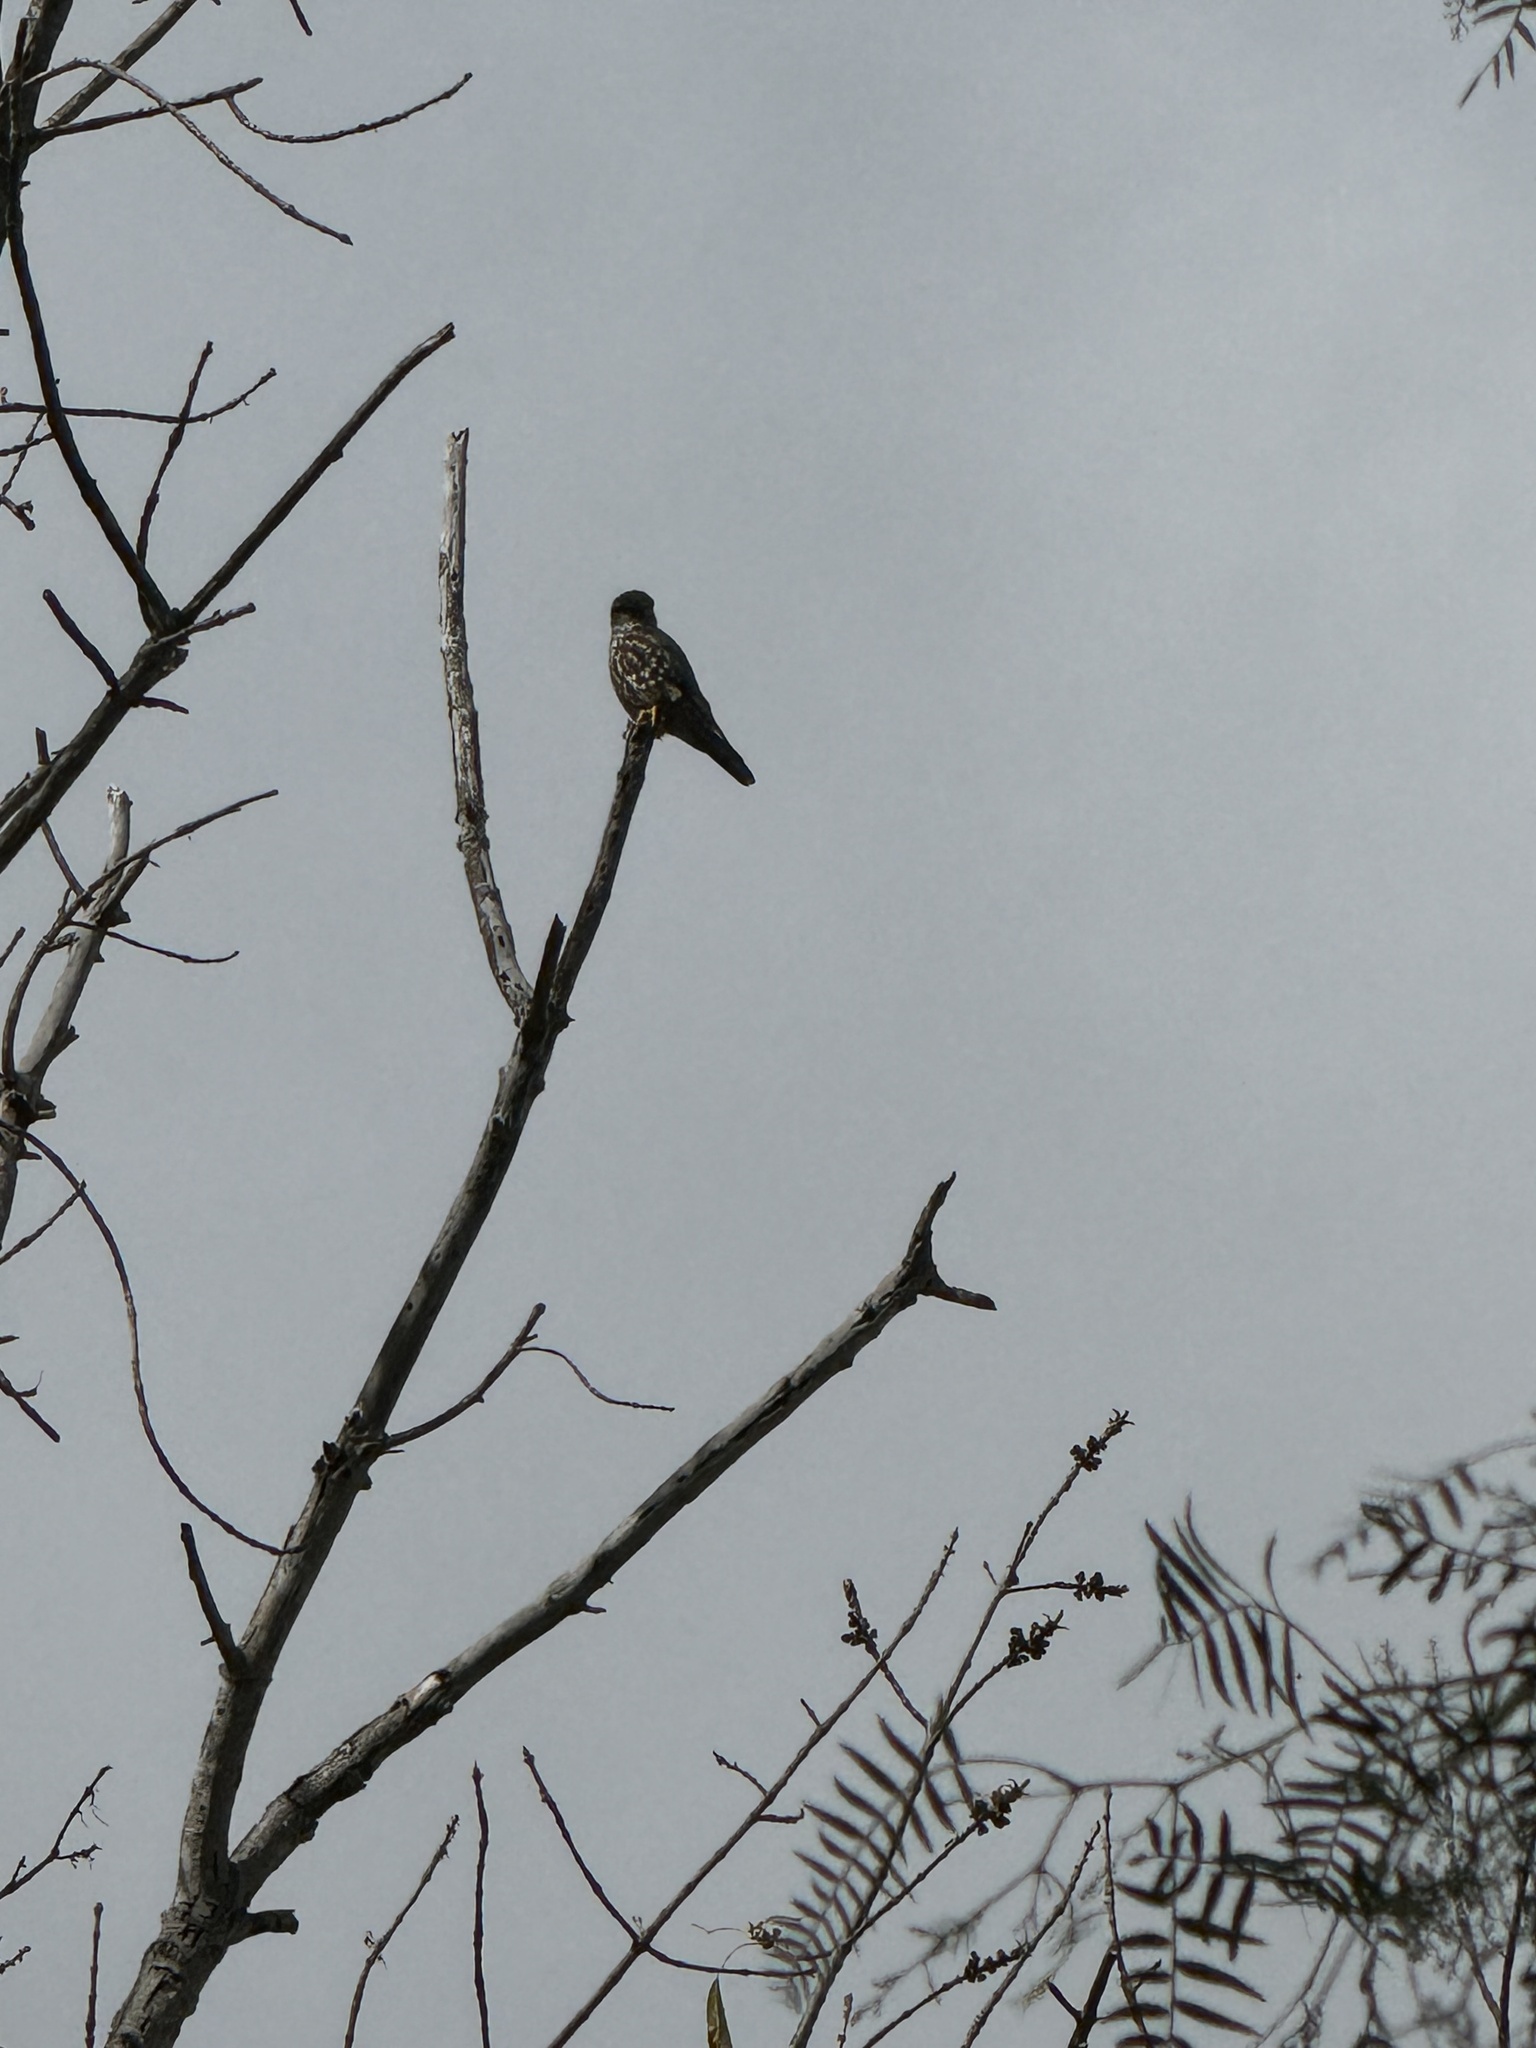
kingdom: Animalia
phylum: Chordata
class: Aves
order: Falconiformes
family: Falconidae
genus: Falco
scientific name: Falco columbarius
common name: Merlin
